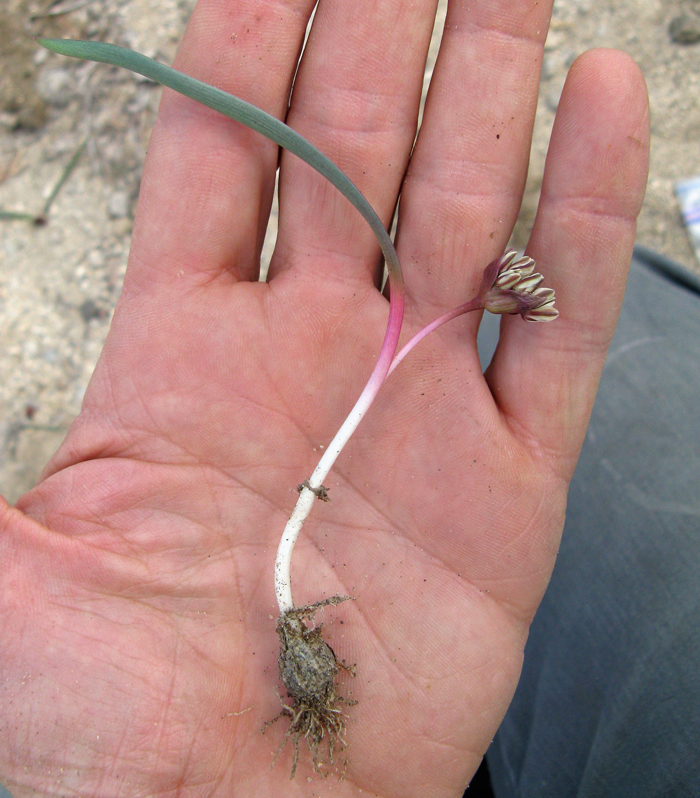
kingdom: Plantae
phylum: Tracheophyta
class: Liliopsida
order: Asparagales
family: Amaryllidaceae
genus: Allium
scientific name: Allium obtusum
